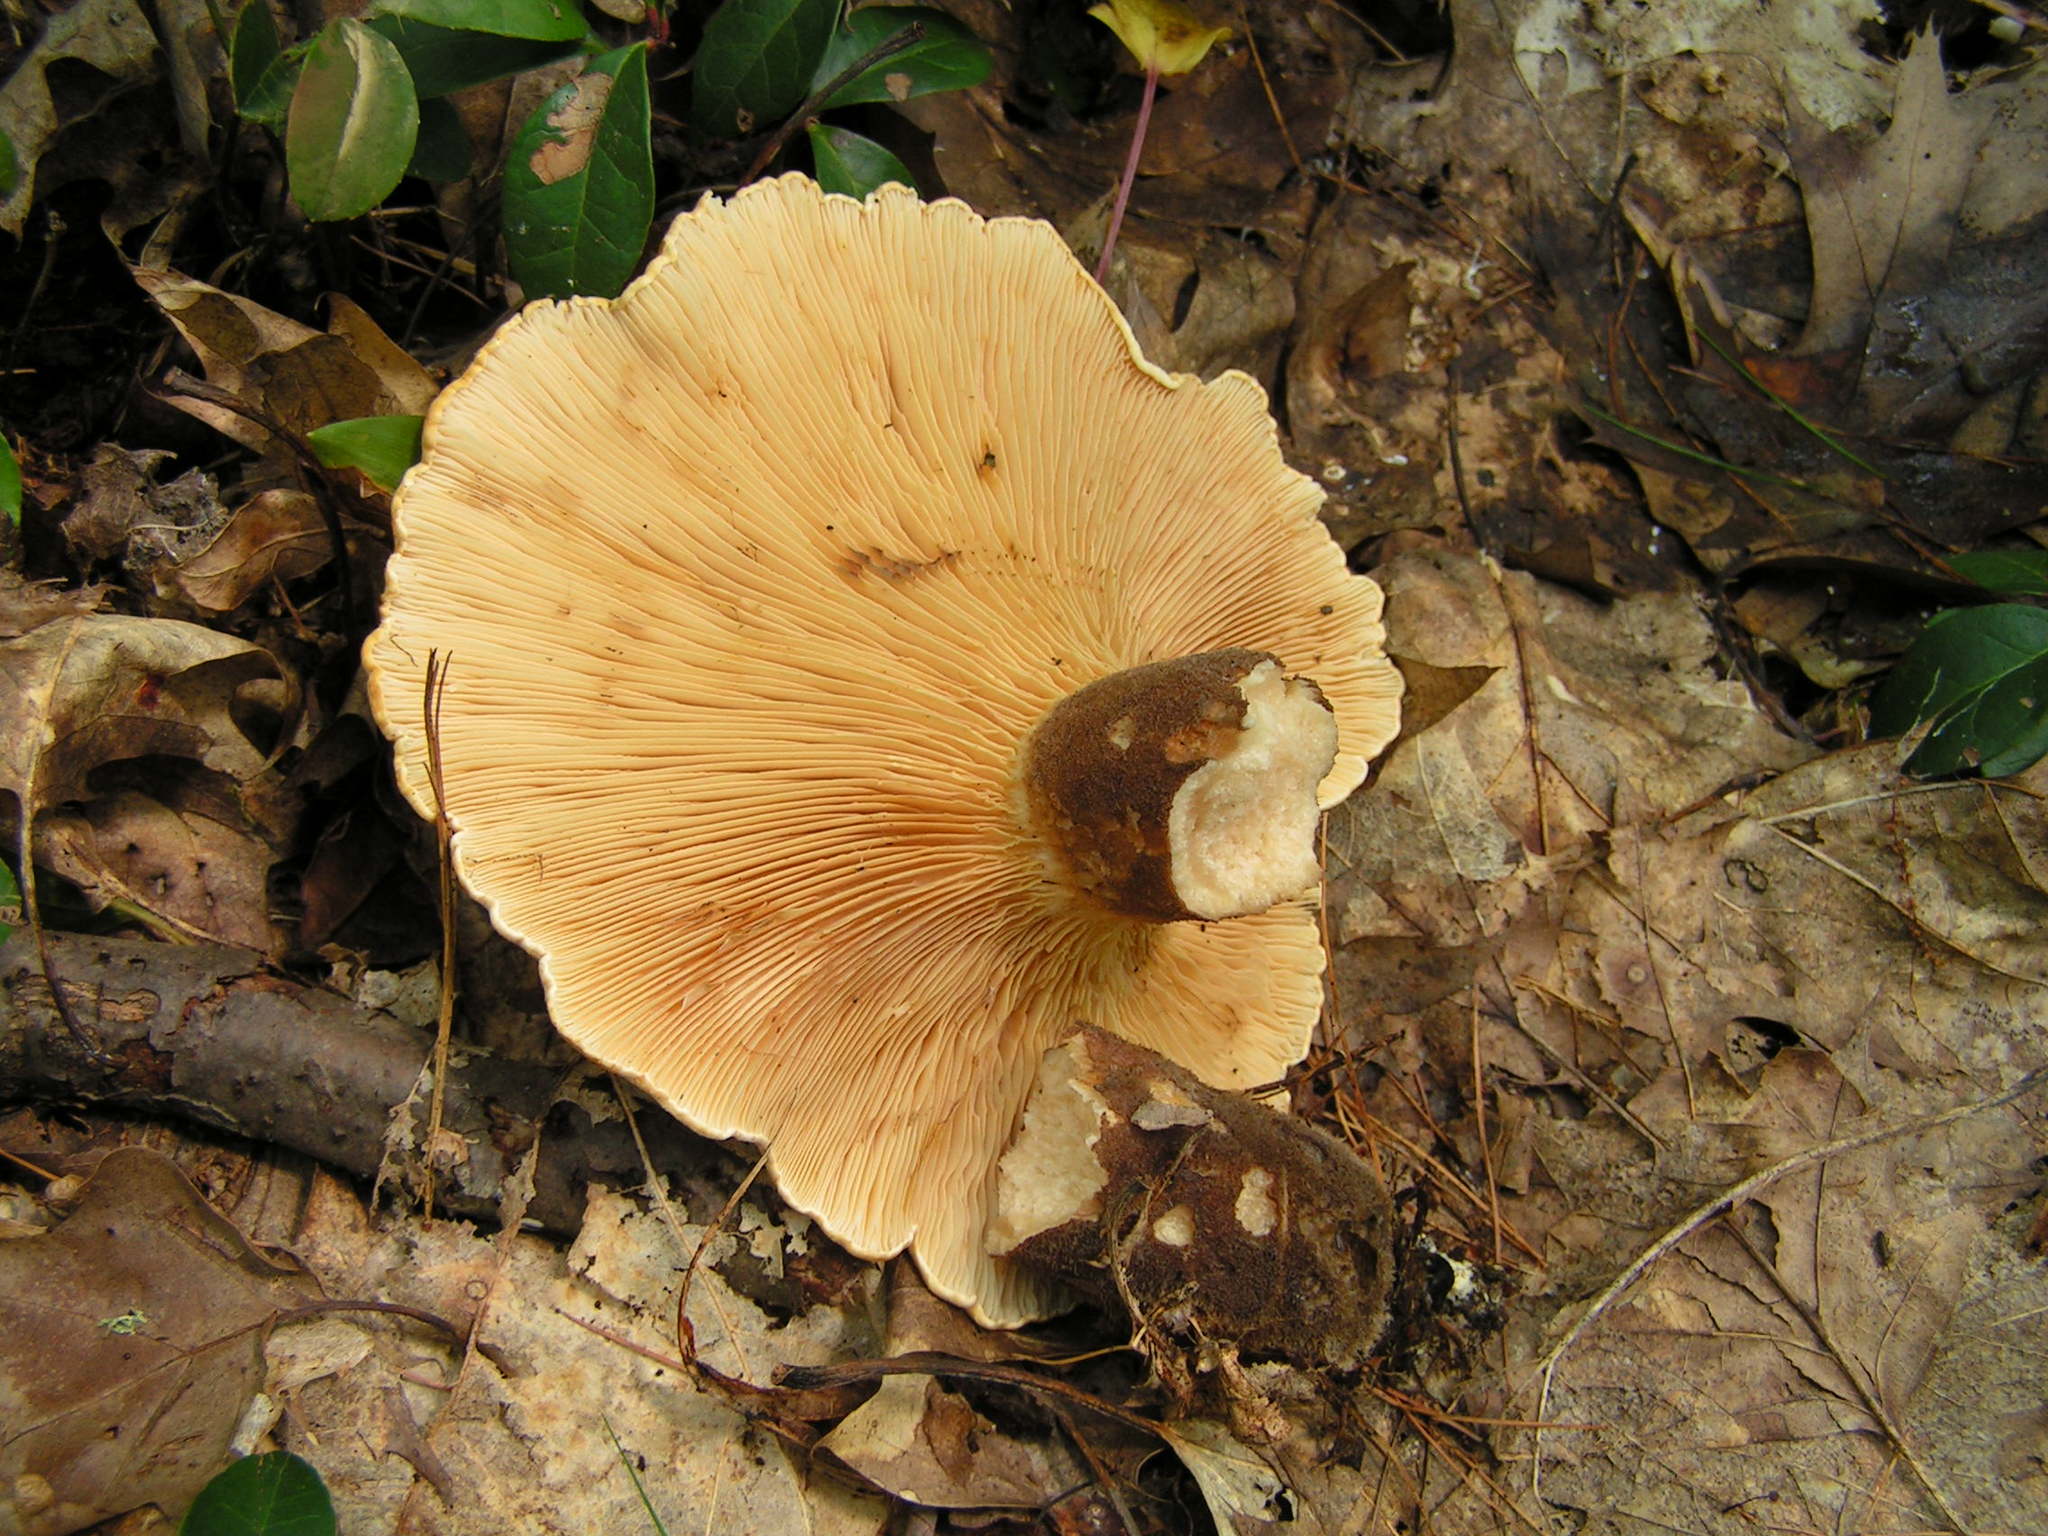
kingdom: Fungi
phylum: Basidiomycota
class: Agaricomycetes
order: Boletales
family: Tapinellaceae
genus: Tapinella
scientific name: Tapinella atrotomentosa
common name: Velvet rollrim
